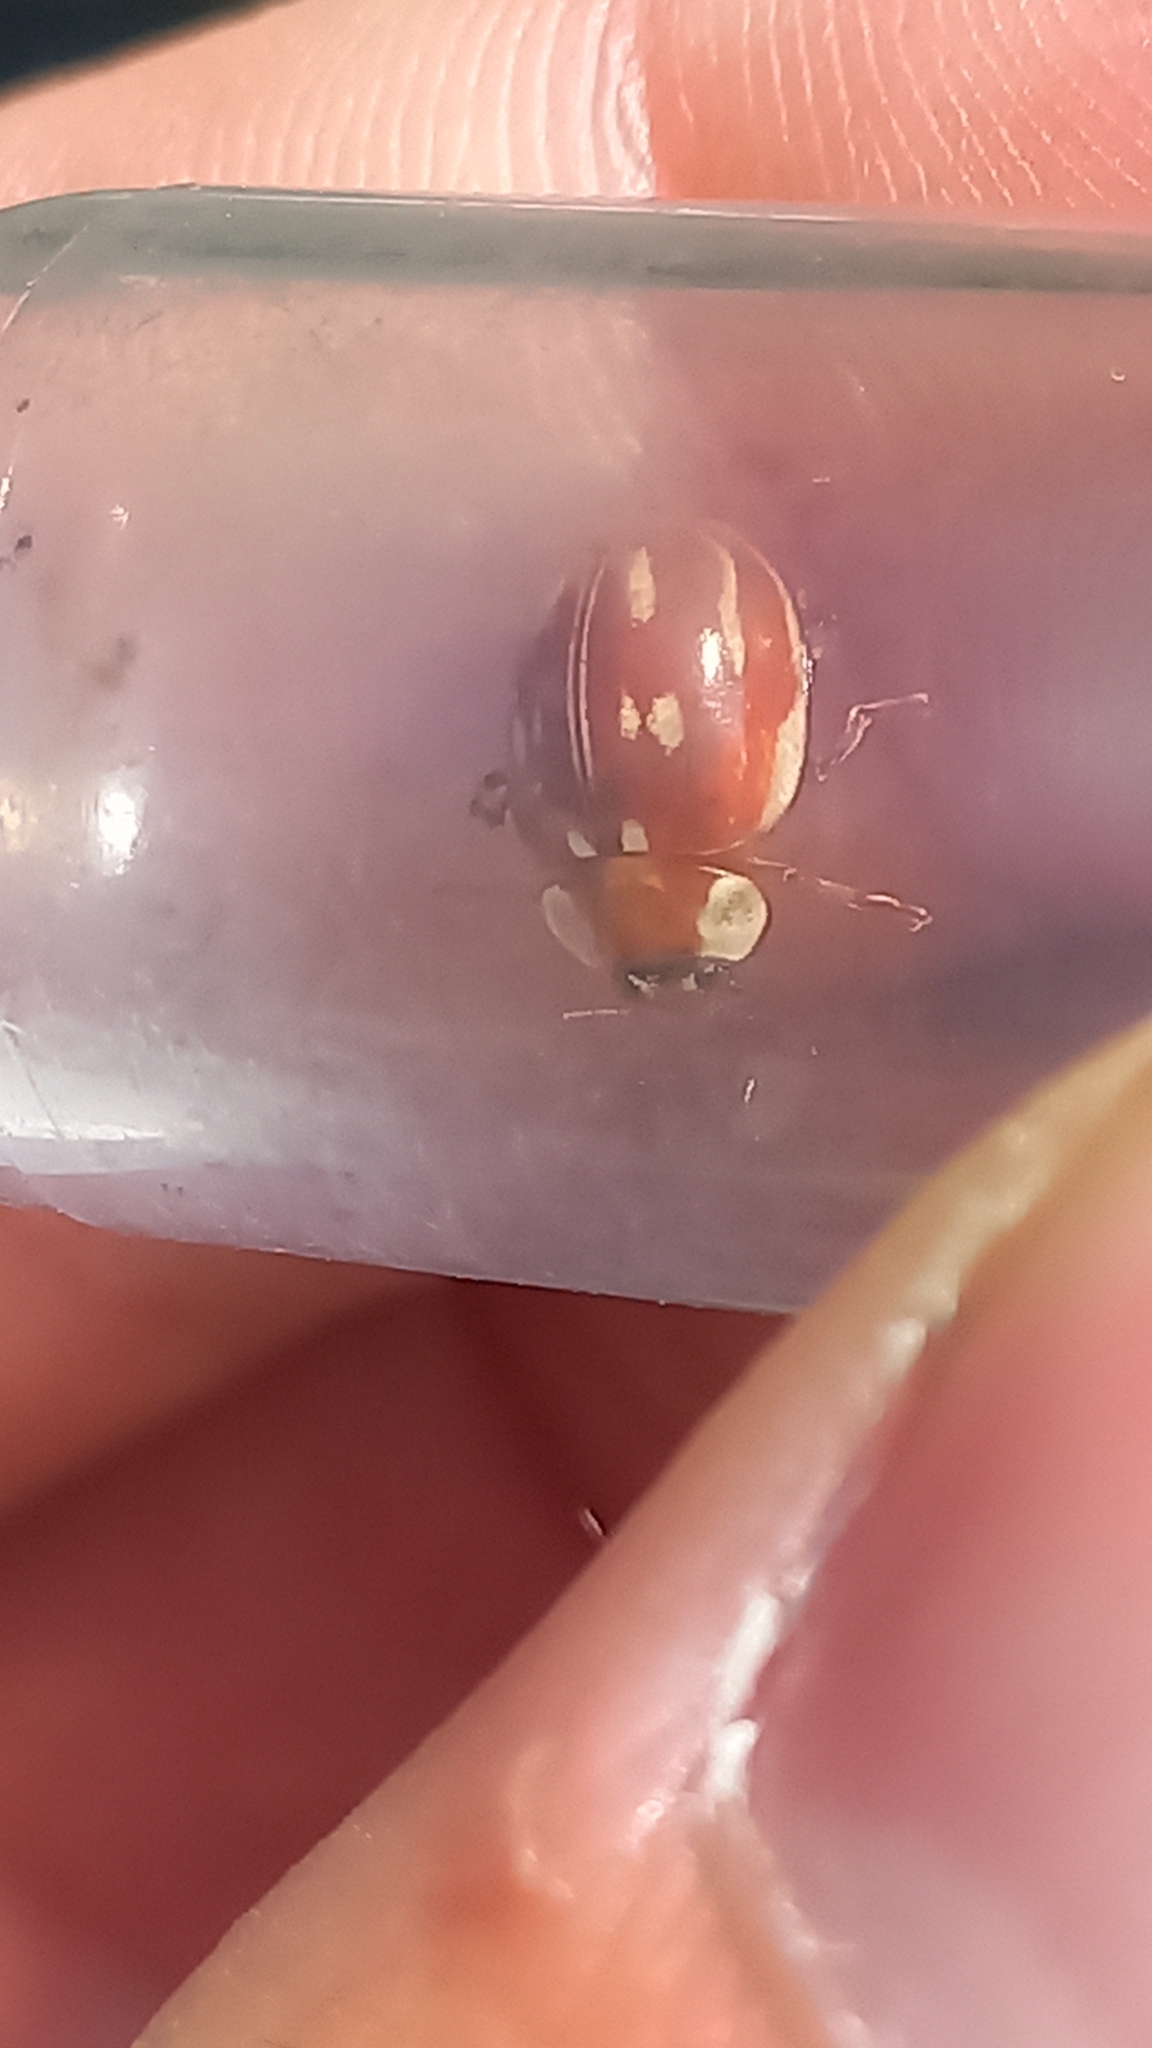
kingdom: Animalia
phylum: Arthropoda
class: Insecta
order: Coleoptera
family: Coccinellidae
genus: Myzia
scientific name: Myzia oblongoguttata
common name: Striped ladybird
